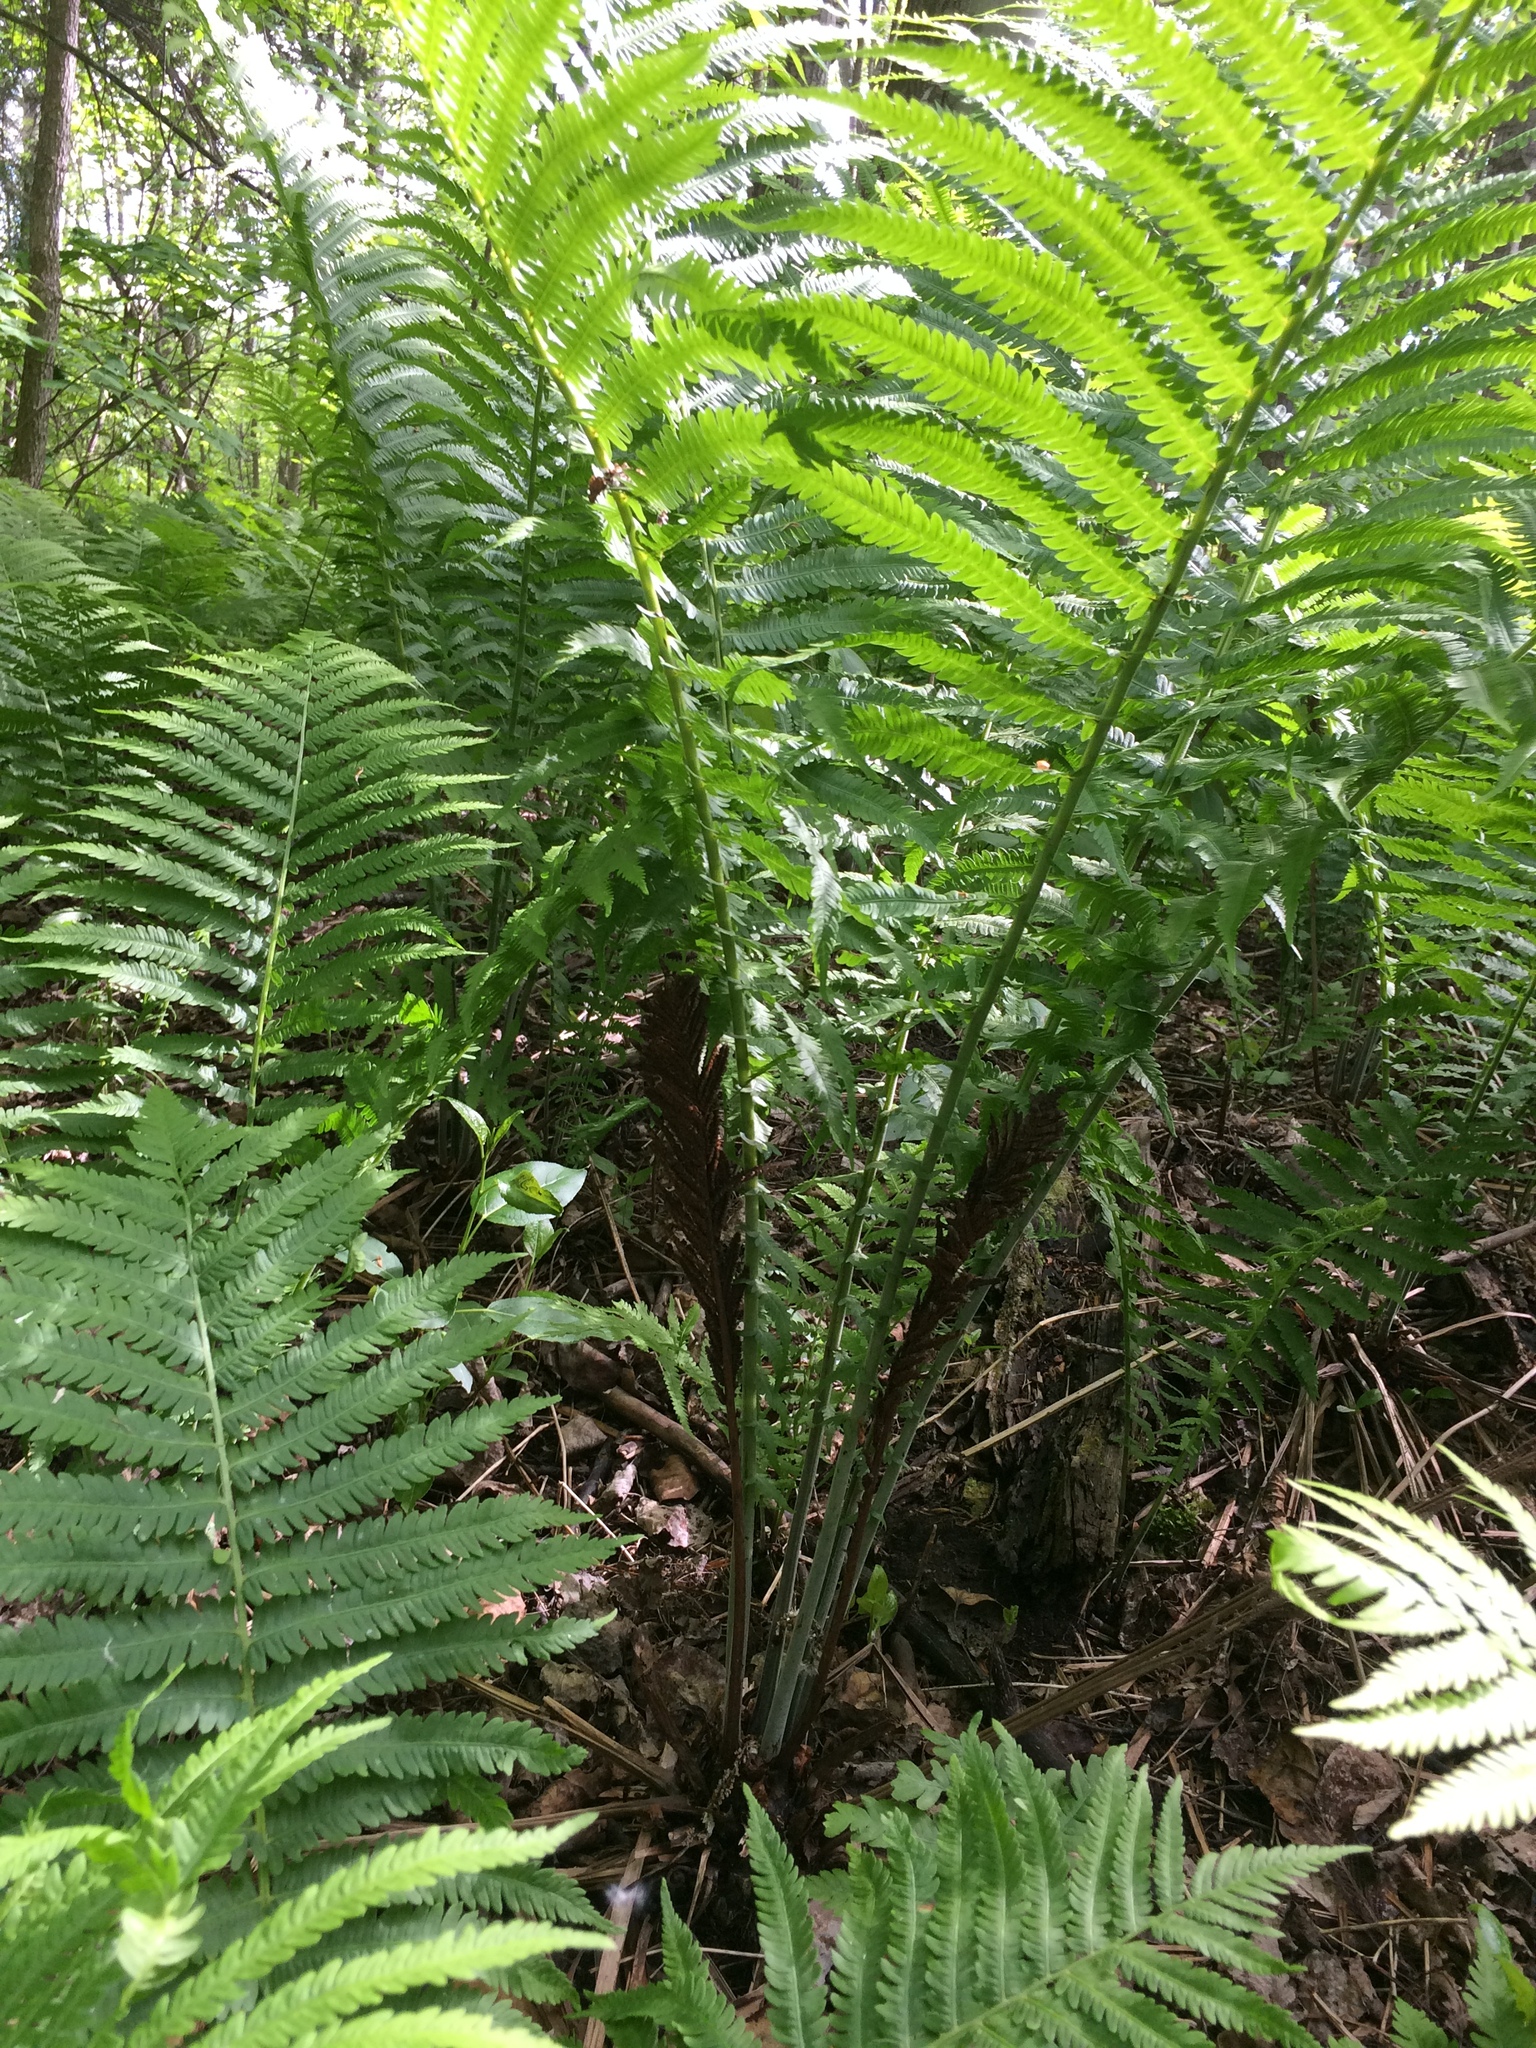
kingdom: Plantae
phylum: Tracheophyta
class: Polypodiopsida
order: Polypodiales
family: Onocleaceae
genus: Matteuccia
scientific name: Matteuccia struthiopteris
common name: Ostrich fern
